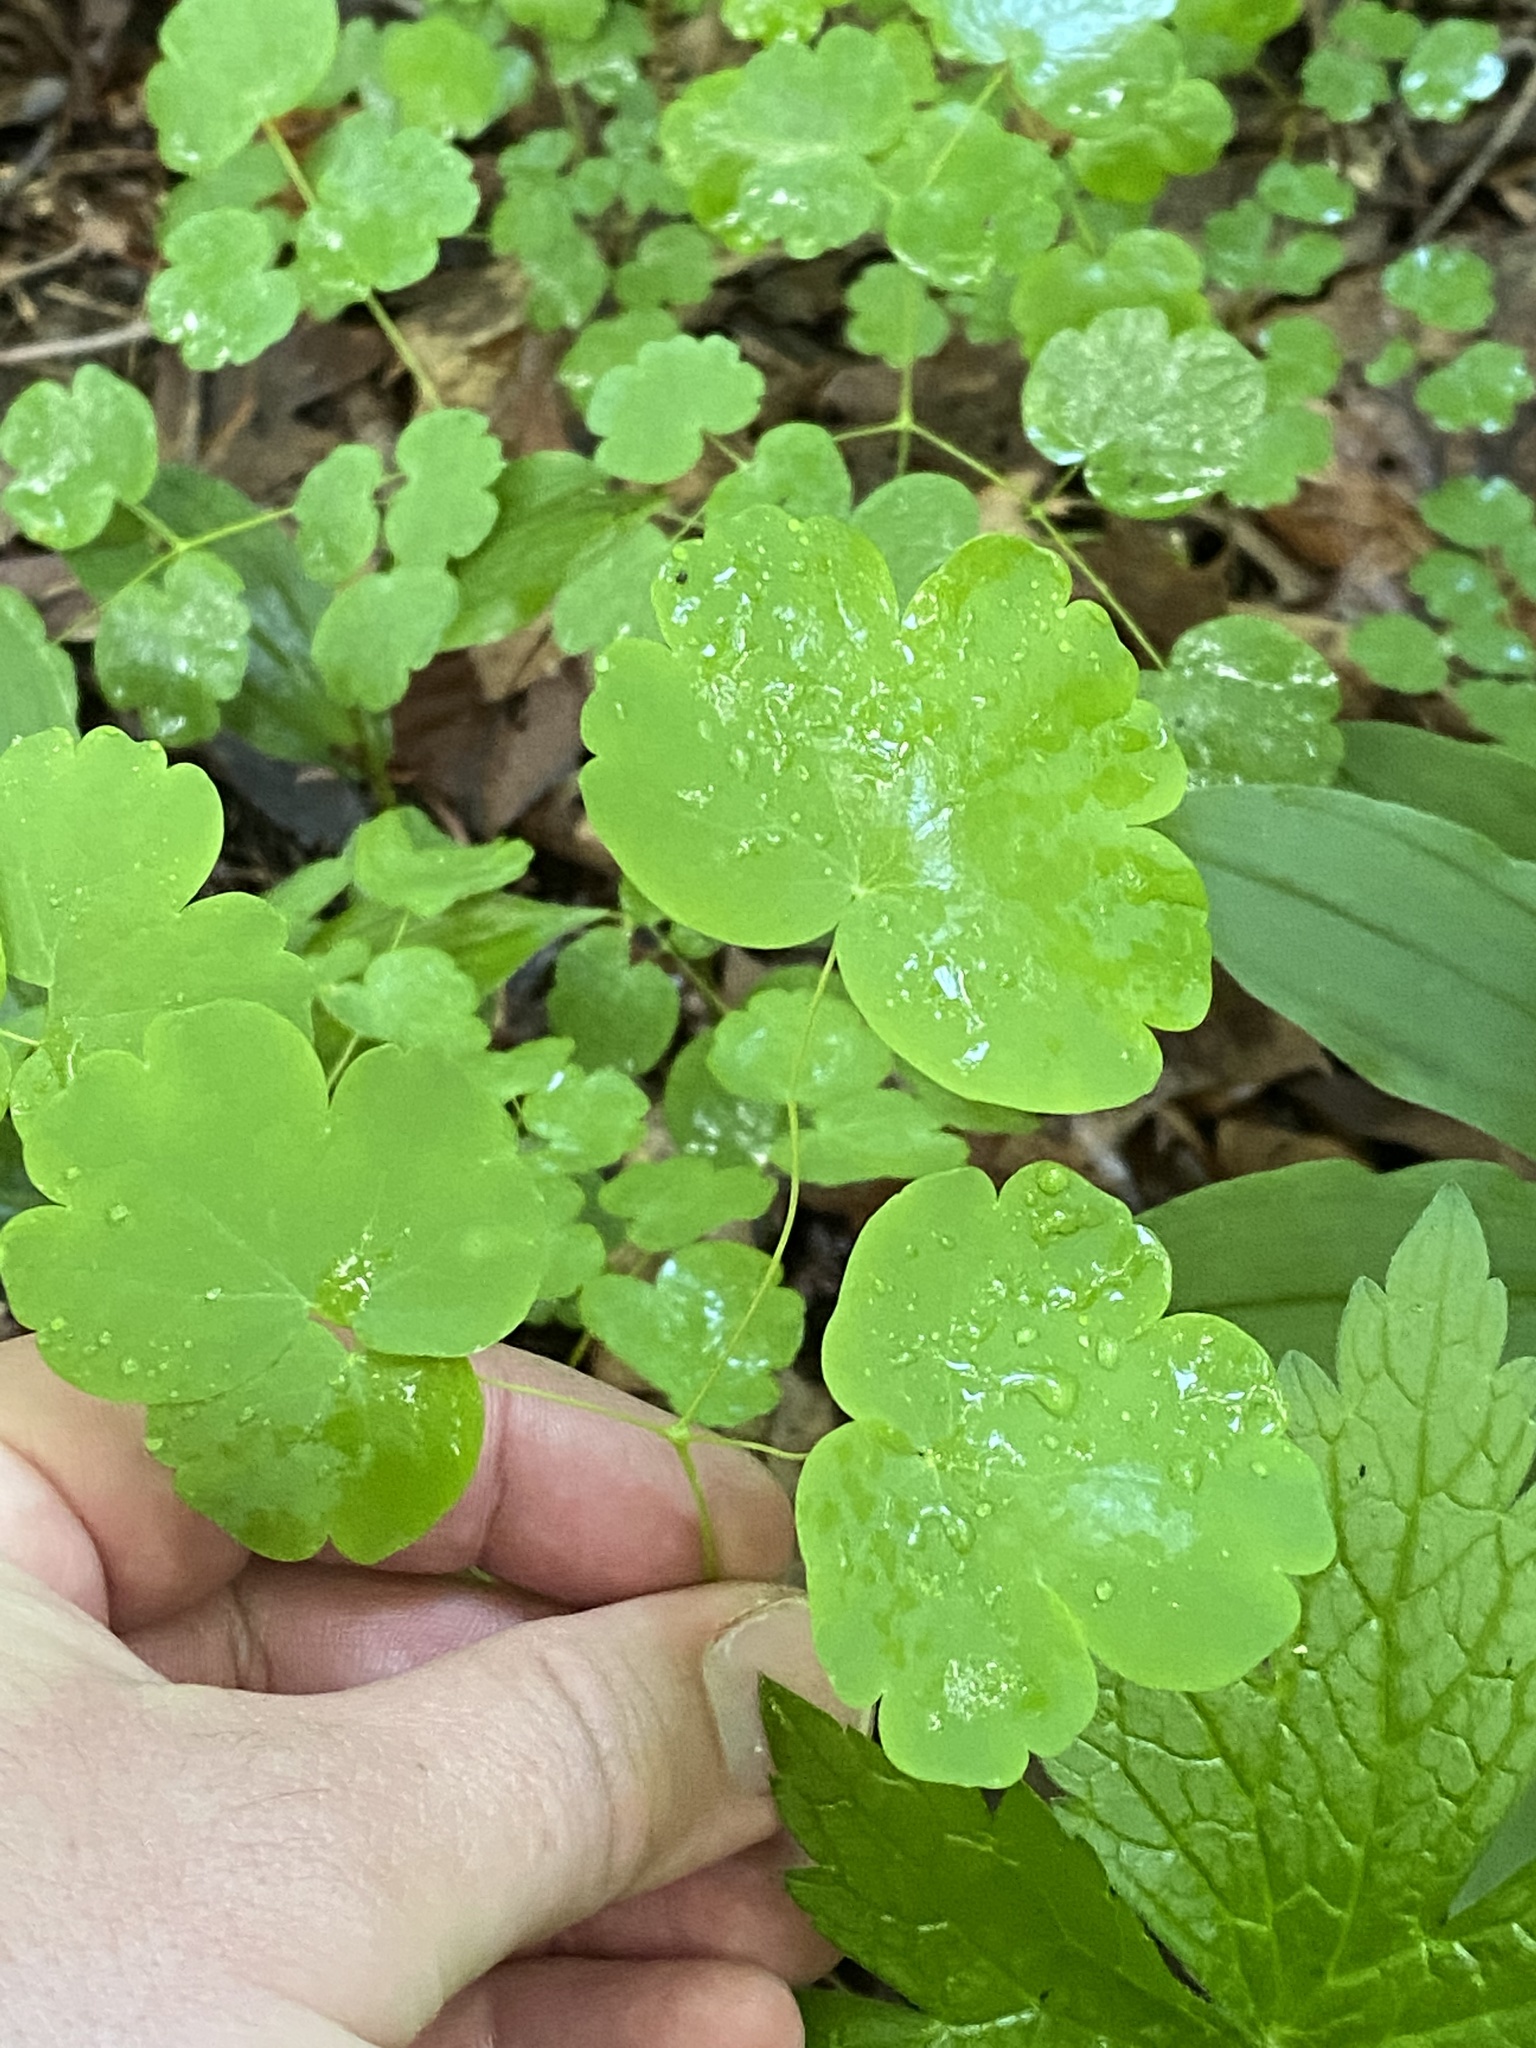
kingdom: Plantae
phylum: Tracheophyta
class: Magnoliopsida
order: Ranunculales
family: Ranunculaceae
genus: Thalictrum
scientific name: Thalictrum dioicum
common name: Early meadow-rue
